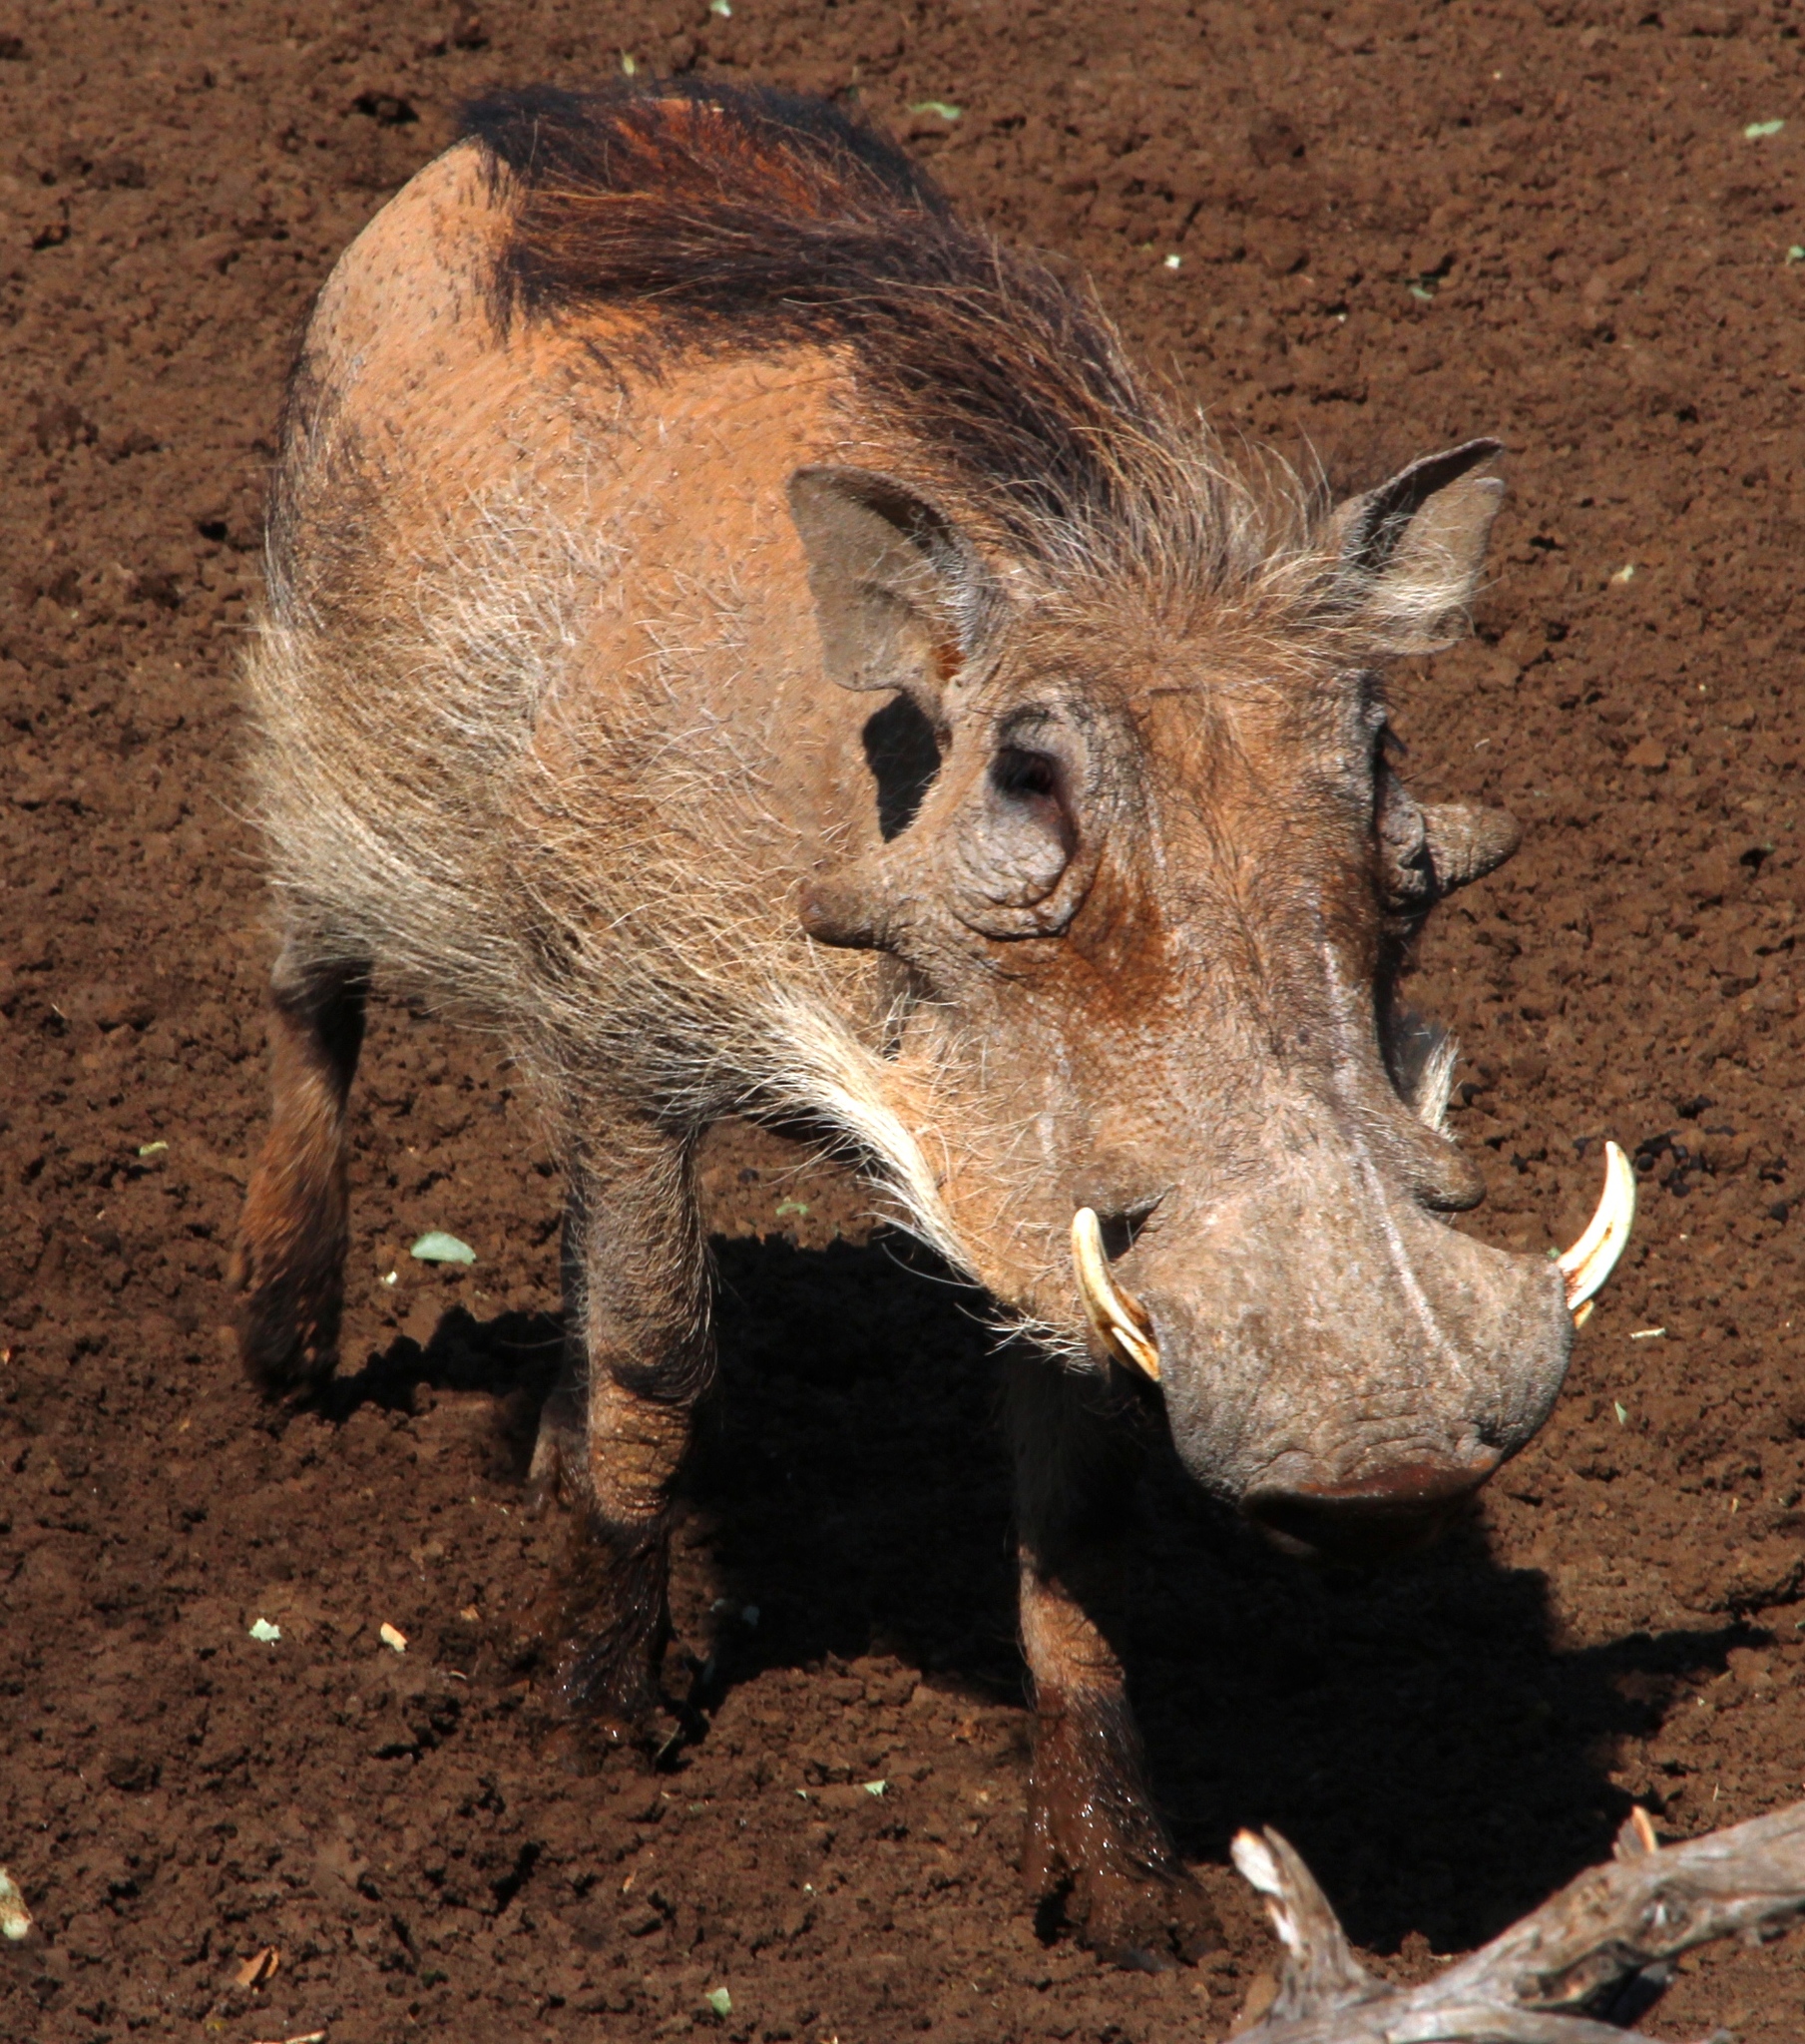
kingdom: Animalia
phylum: Chordata
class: Mammalia
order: Artiodactyla
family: Suidae
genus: Phacochoerus
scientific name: Phacochoerus africanus
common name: Common warthog
